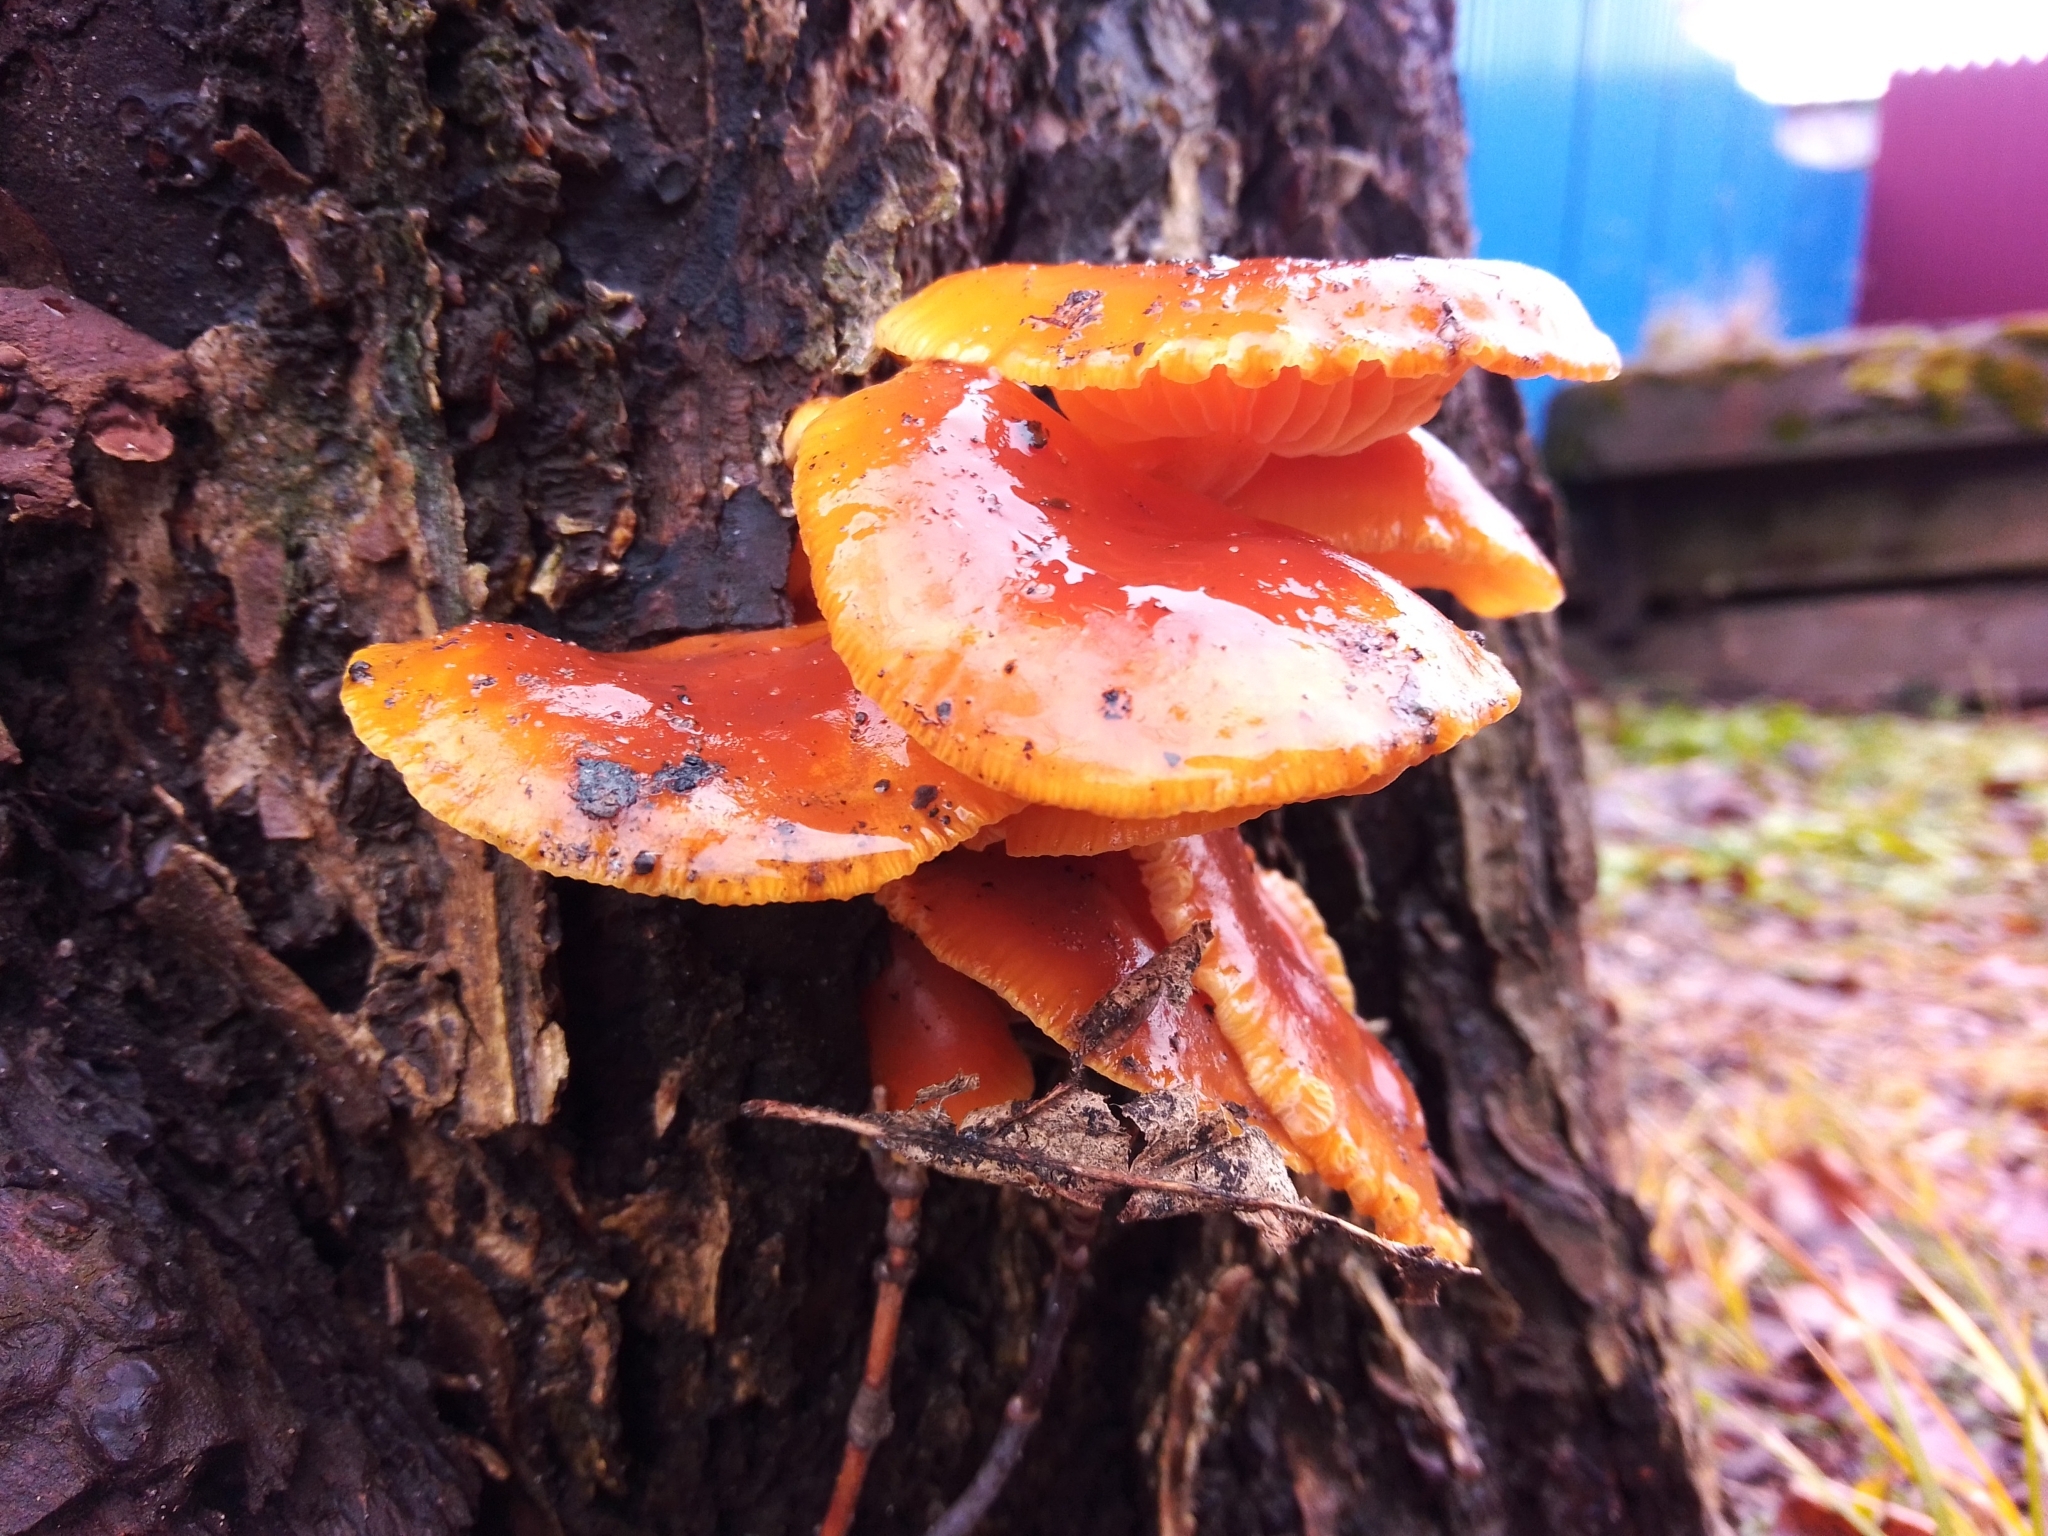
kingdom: Fungi
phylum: Basidiomycota
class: Agaricomycetes
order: Agaricales
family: Physalacriaceae
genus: Flammulina
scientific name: Flammulina
